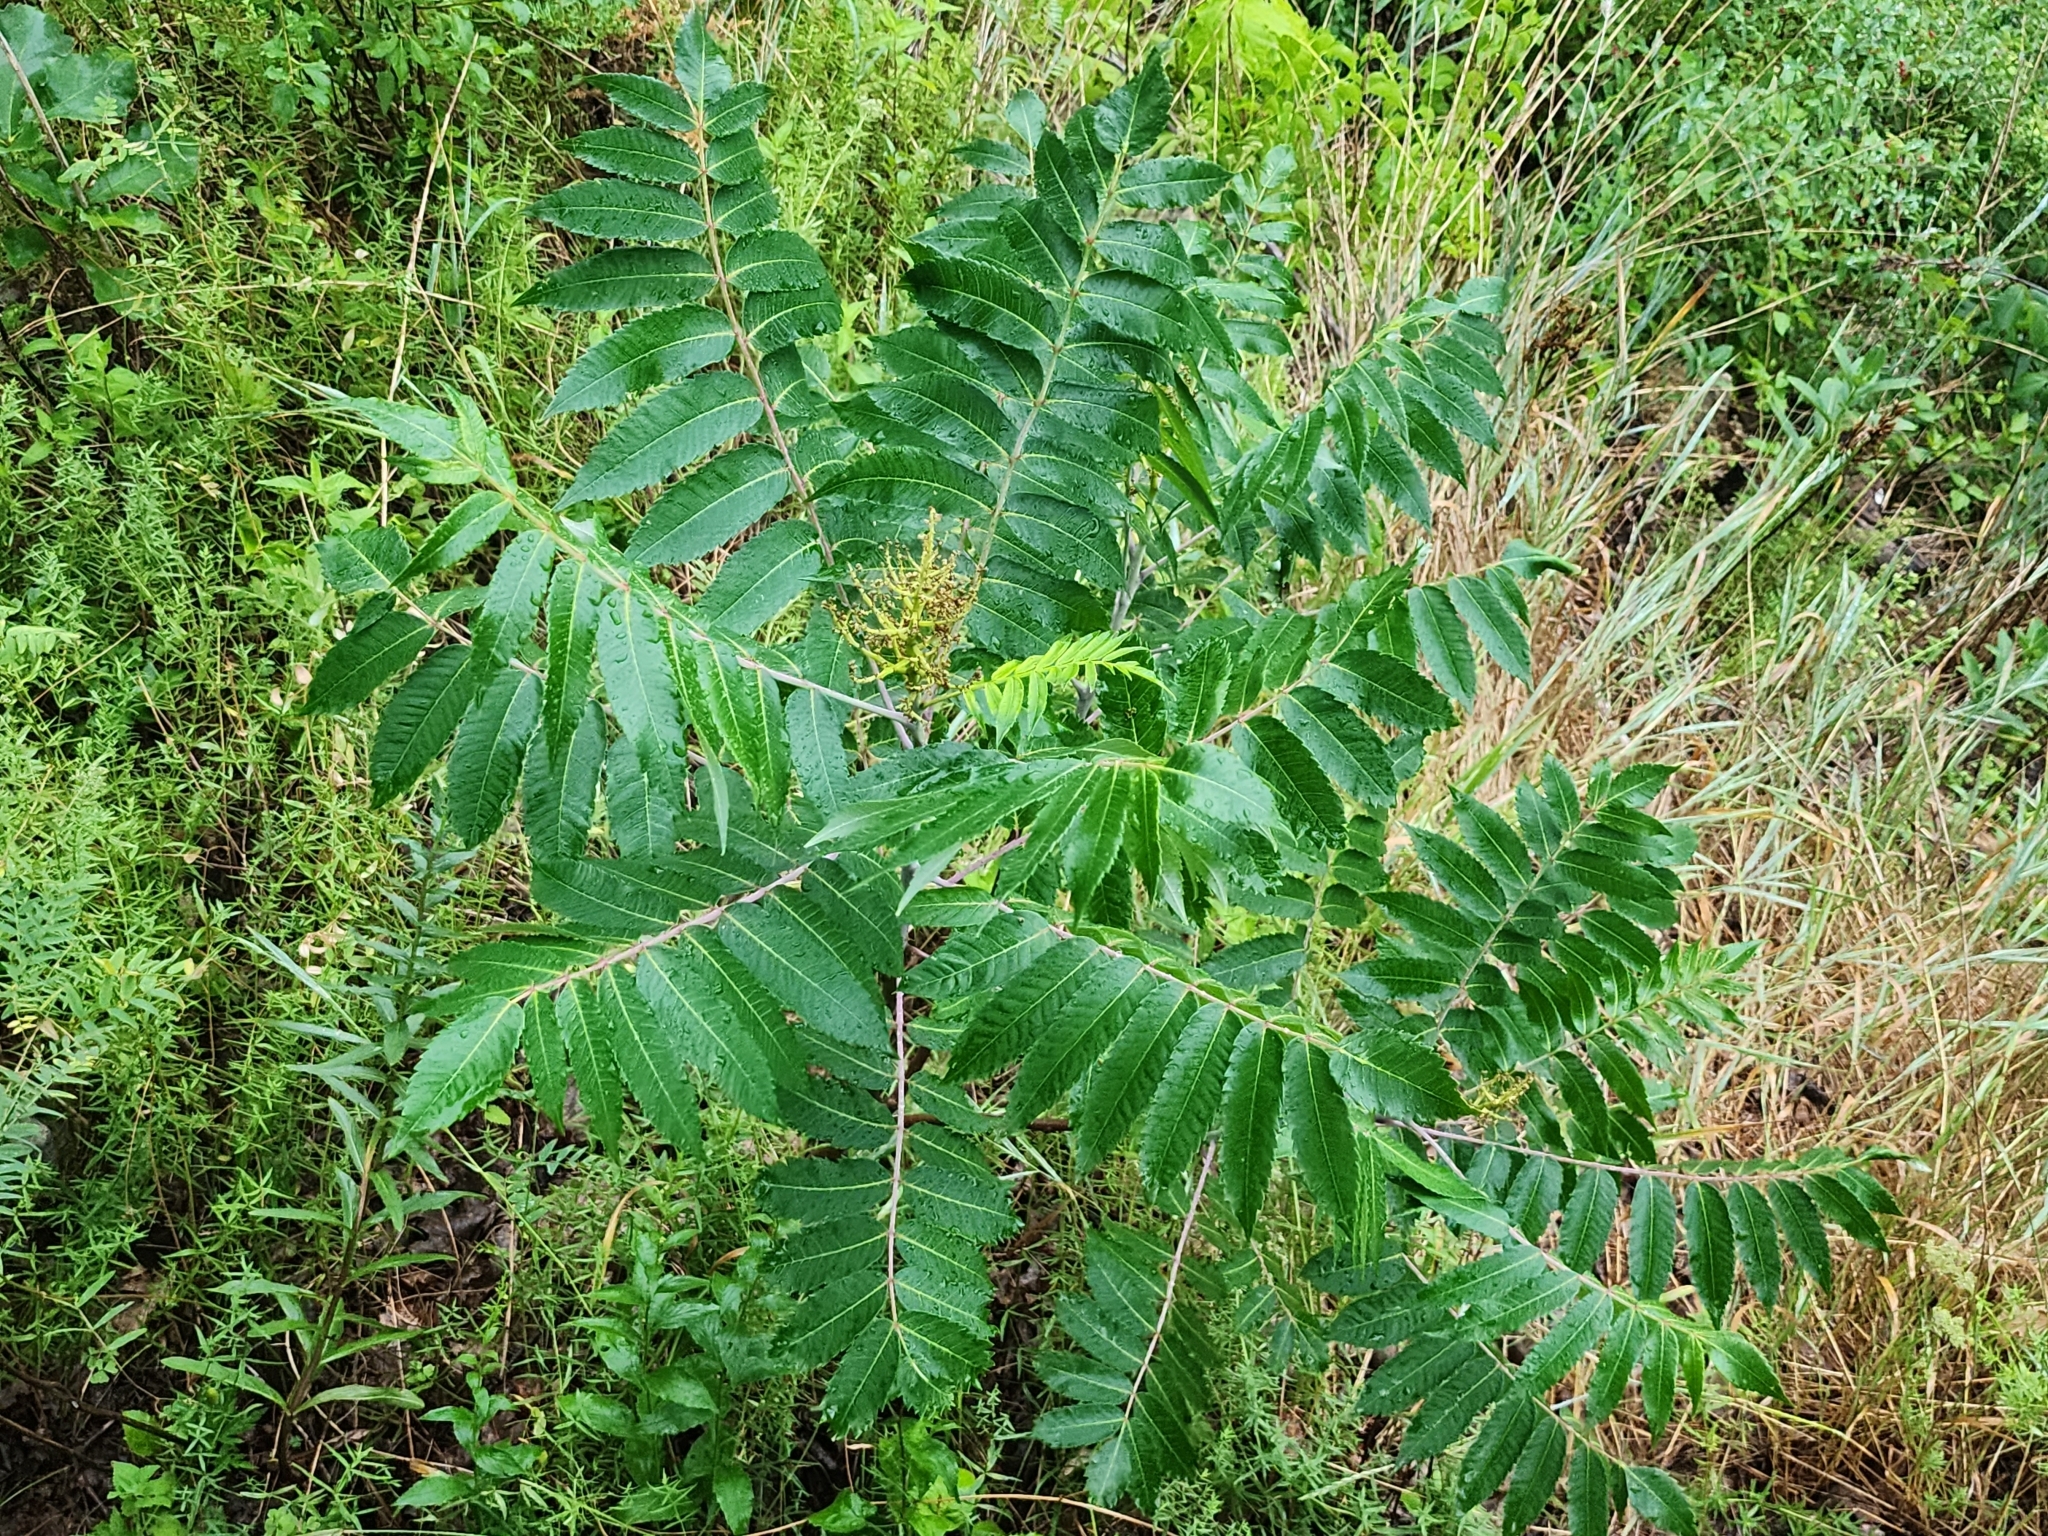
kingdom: Plantae
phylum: Tracheophyta
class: Magnoliopsida
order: Sapindales
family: Anacardiaceae
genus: Rhus
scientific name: Rhus glabra
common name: Scarlet sumac
